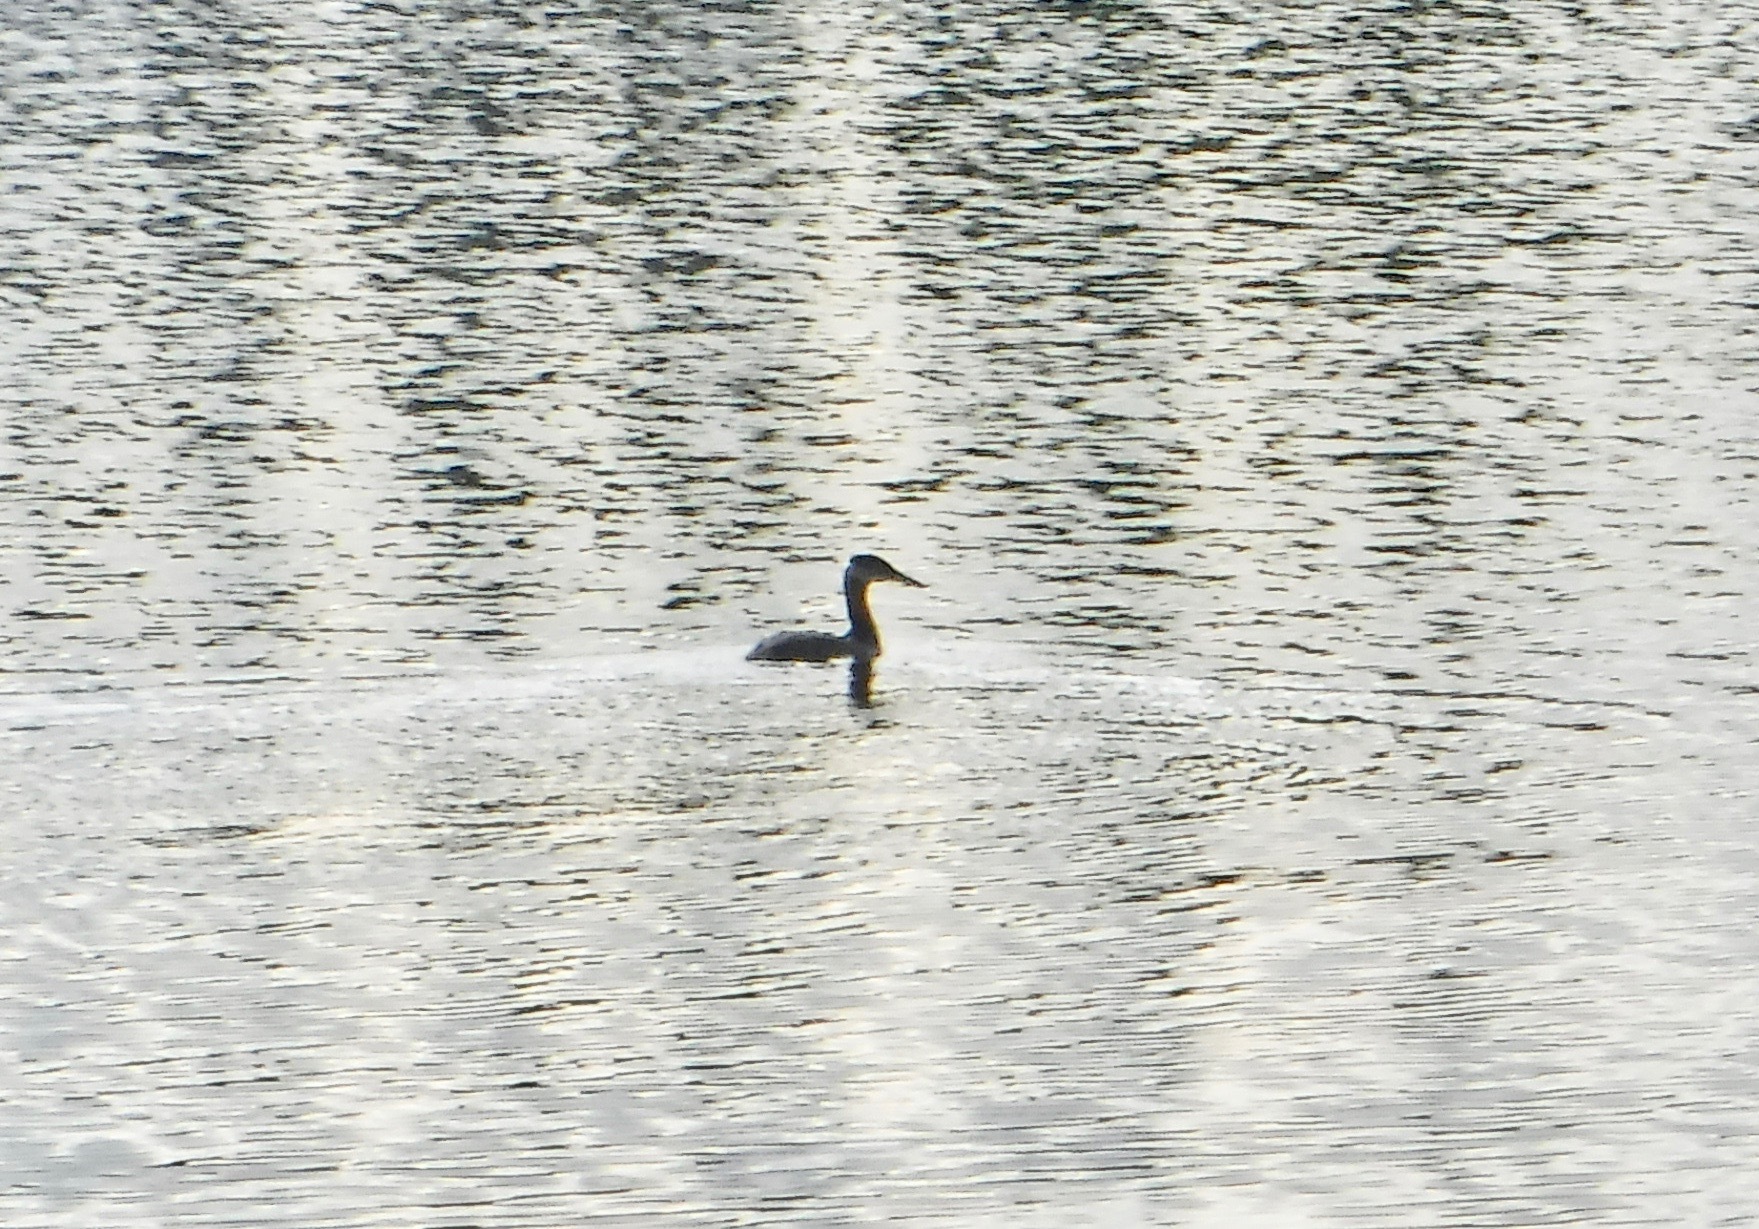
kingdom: Animalia
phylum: Chordata
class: Aves
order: Podicipediformes
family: Podicipedidae
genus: Podiceps
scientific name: Podiceps grisegena
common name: Red-necked grebe
